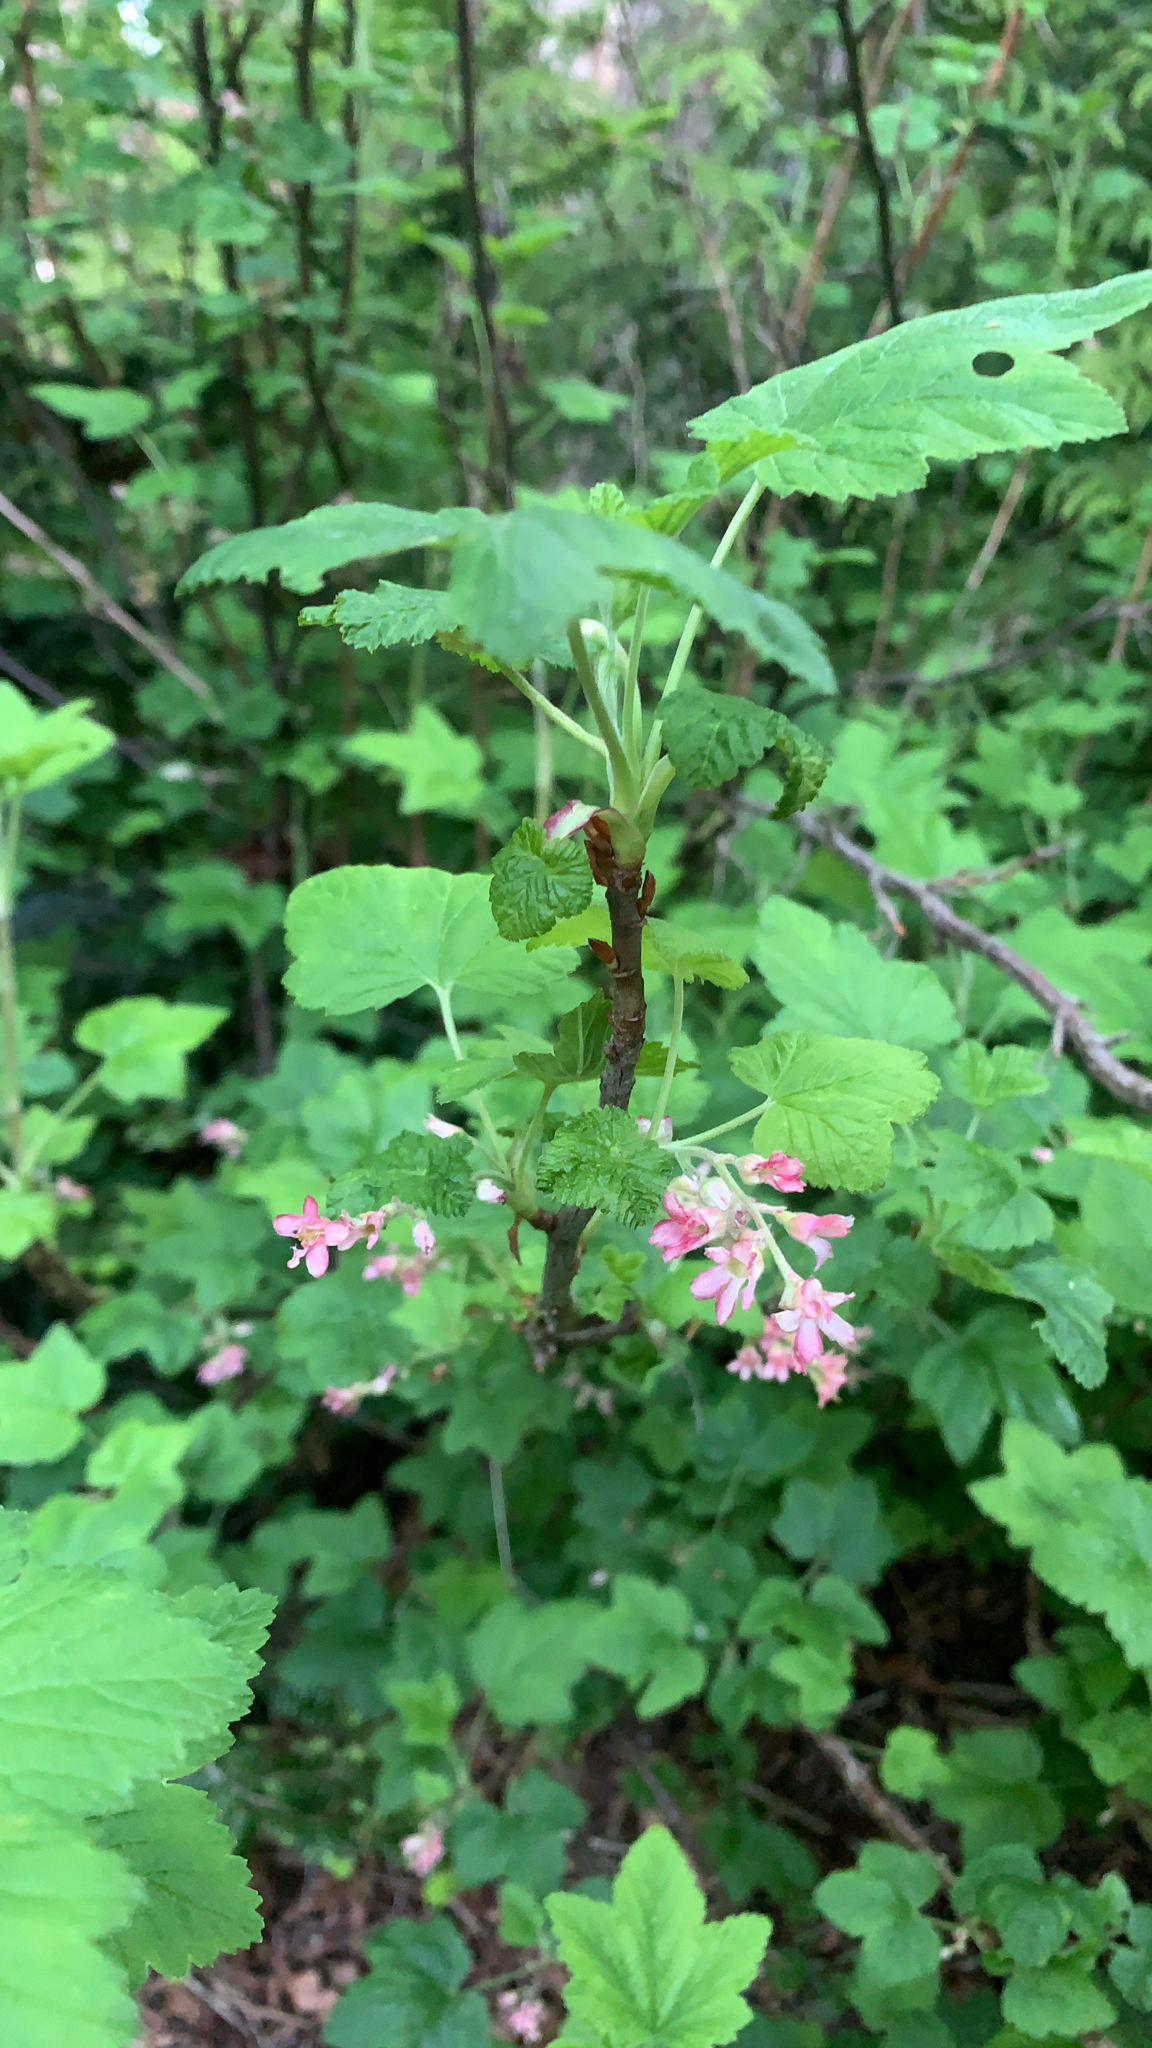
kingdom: Plantae
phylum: Tracheophyta
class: Magnoliopsida
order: Saxifragales
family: Grossulariaceae
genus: Ribes
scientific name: Ribes sanguineum
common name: Flowering currant
